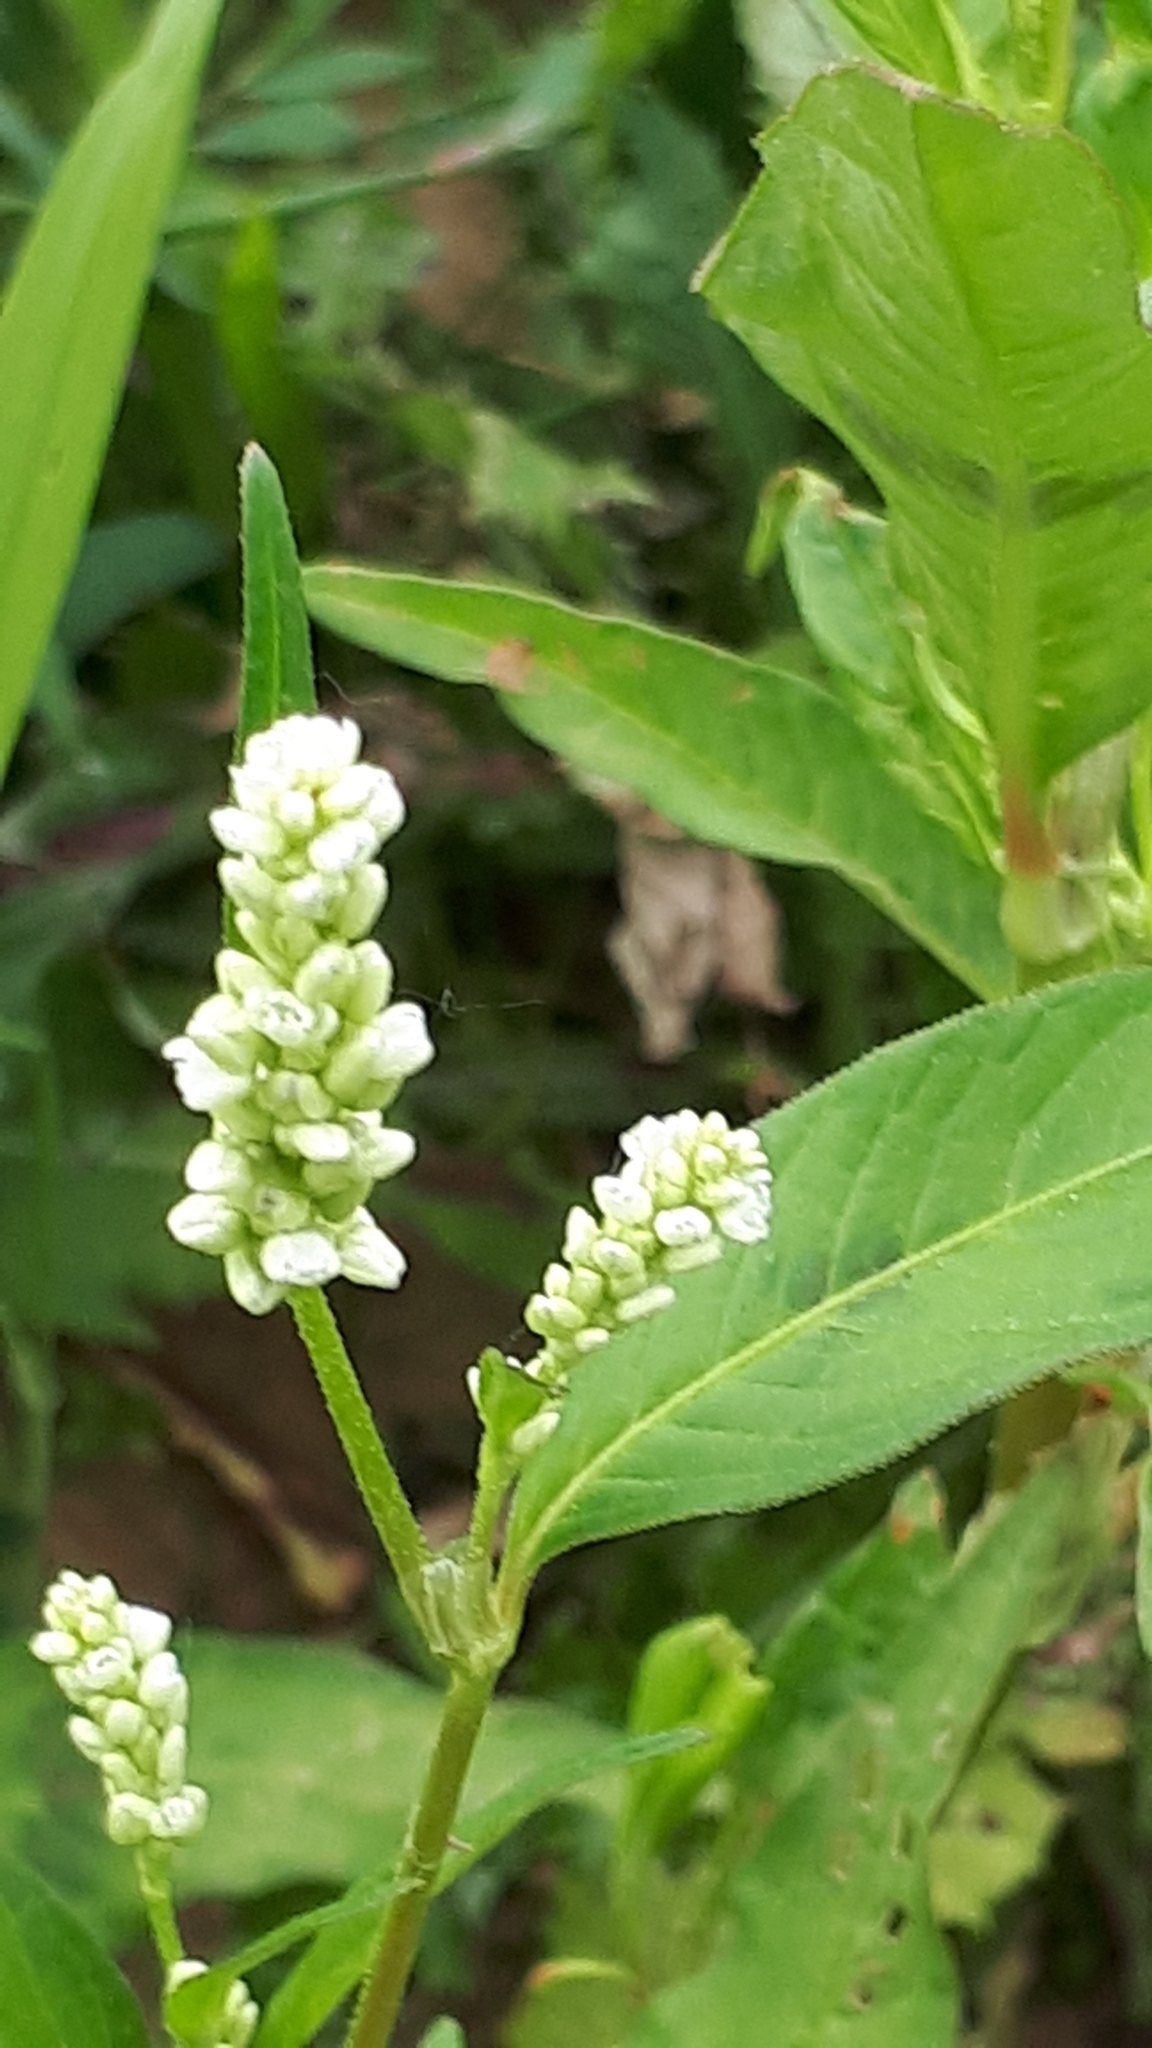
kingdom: Plantae
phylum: Tracheophyta
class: Magnoliopsida
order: Caryophyllales
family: Polygonaceae
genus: Persicaria
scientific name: Persicaria lapathifolia
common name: Curlytop knotweed
